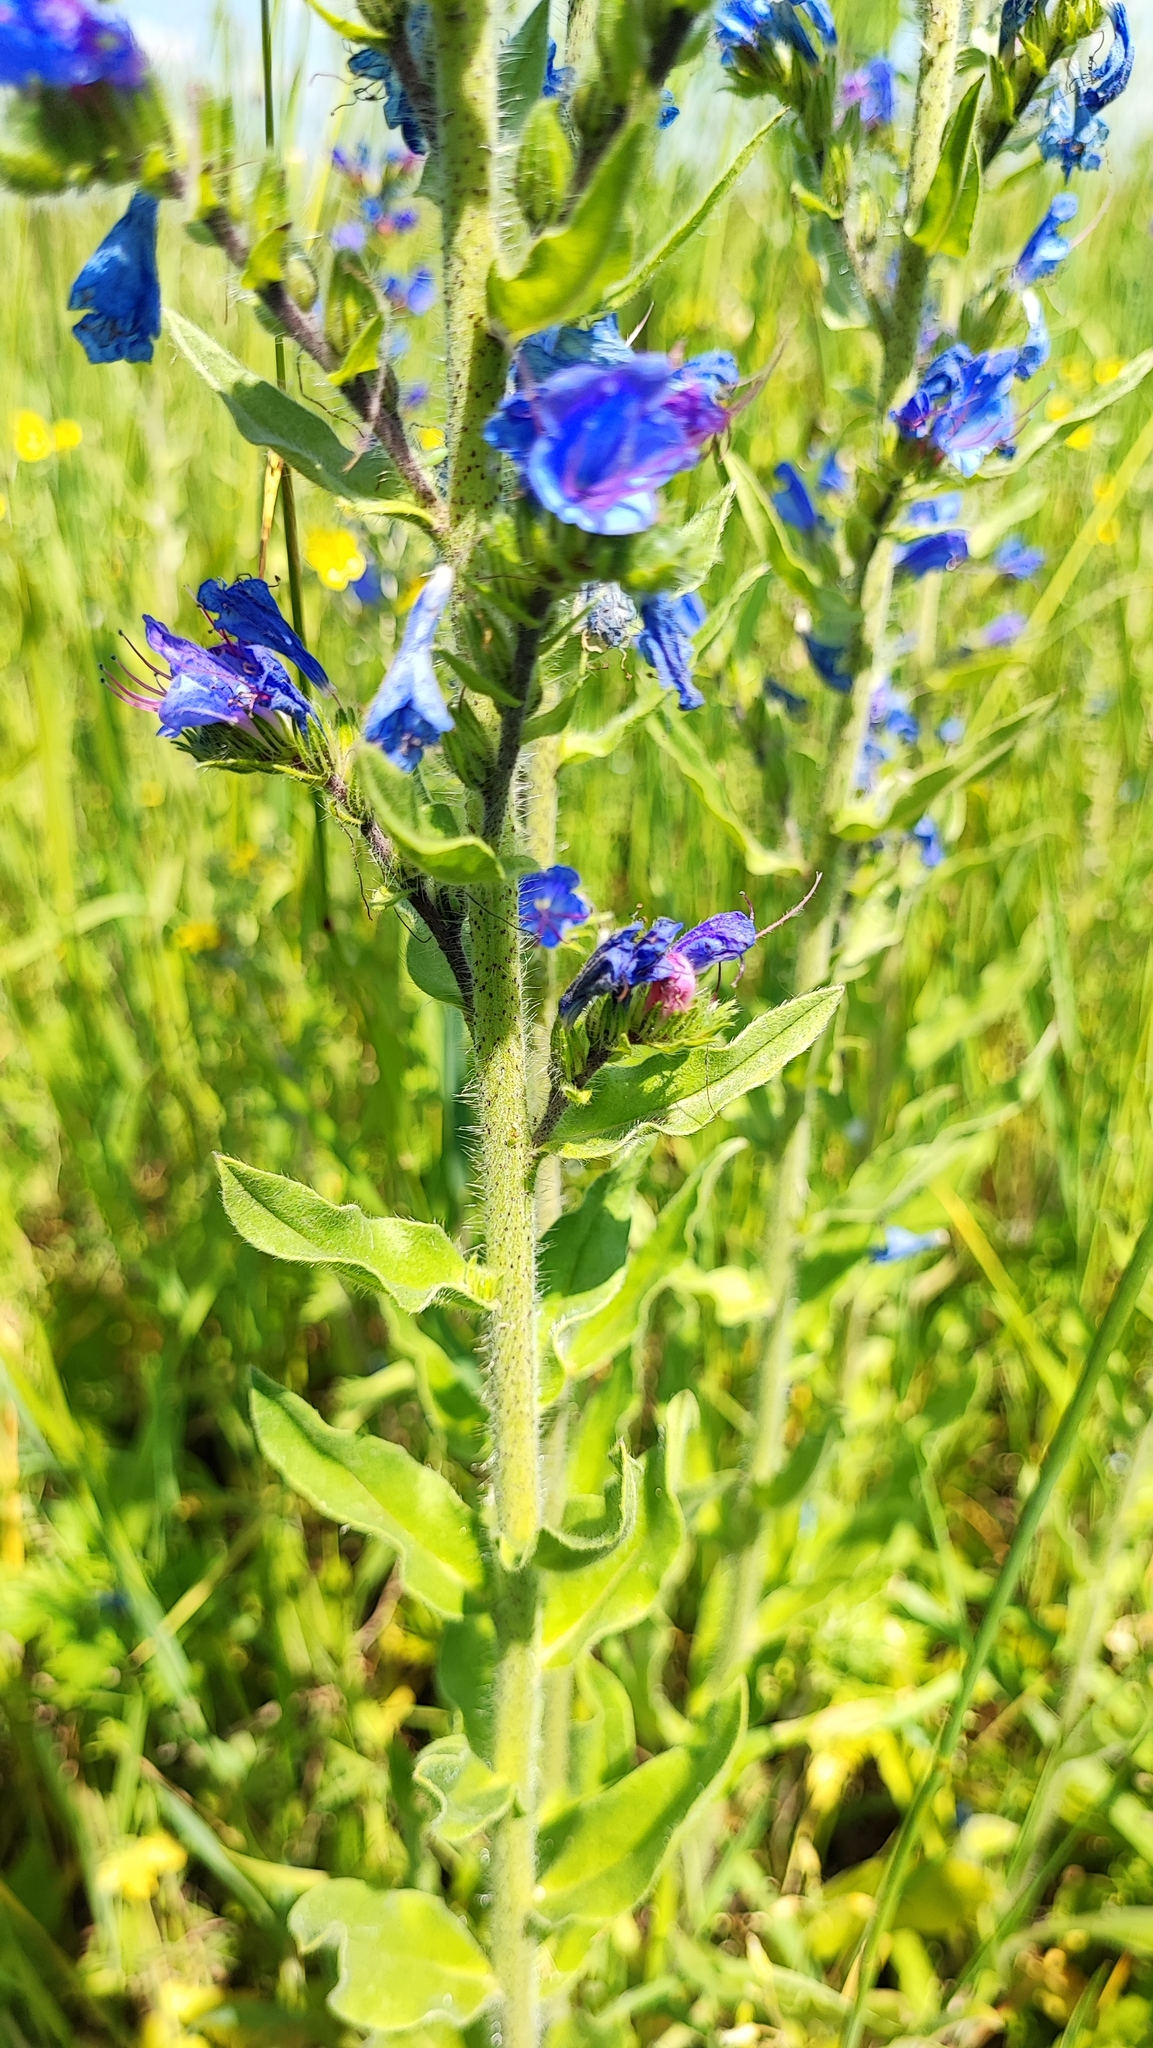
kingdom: Plantae
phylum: Tracheophyta
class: Magnoliopsida
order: Boraginales
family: Boraginaceae
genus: Echium
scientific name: Echium vulgare
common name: Common viper's bugloss
